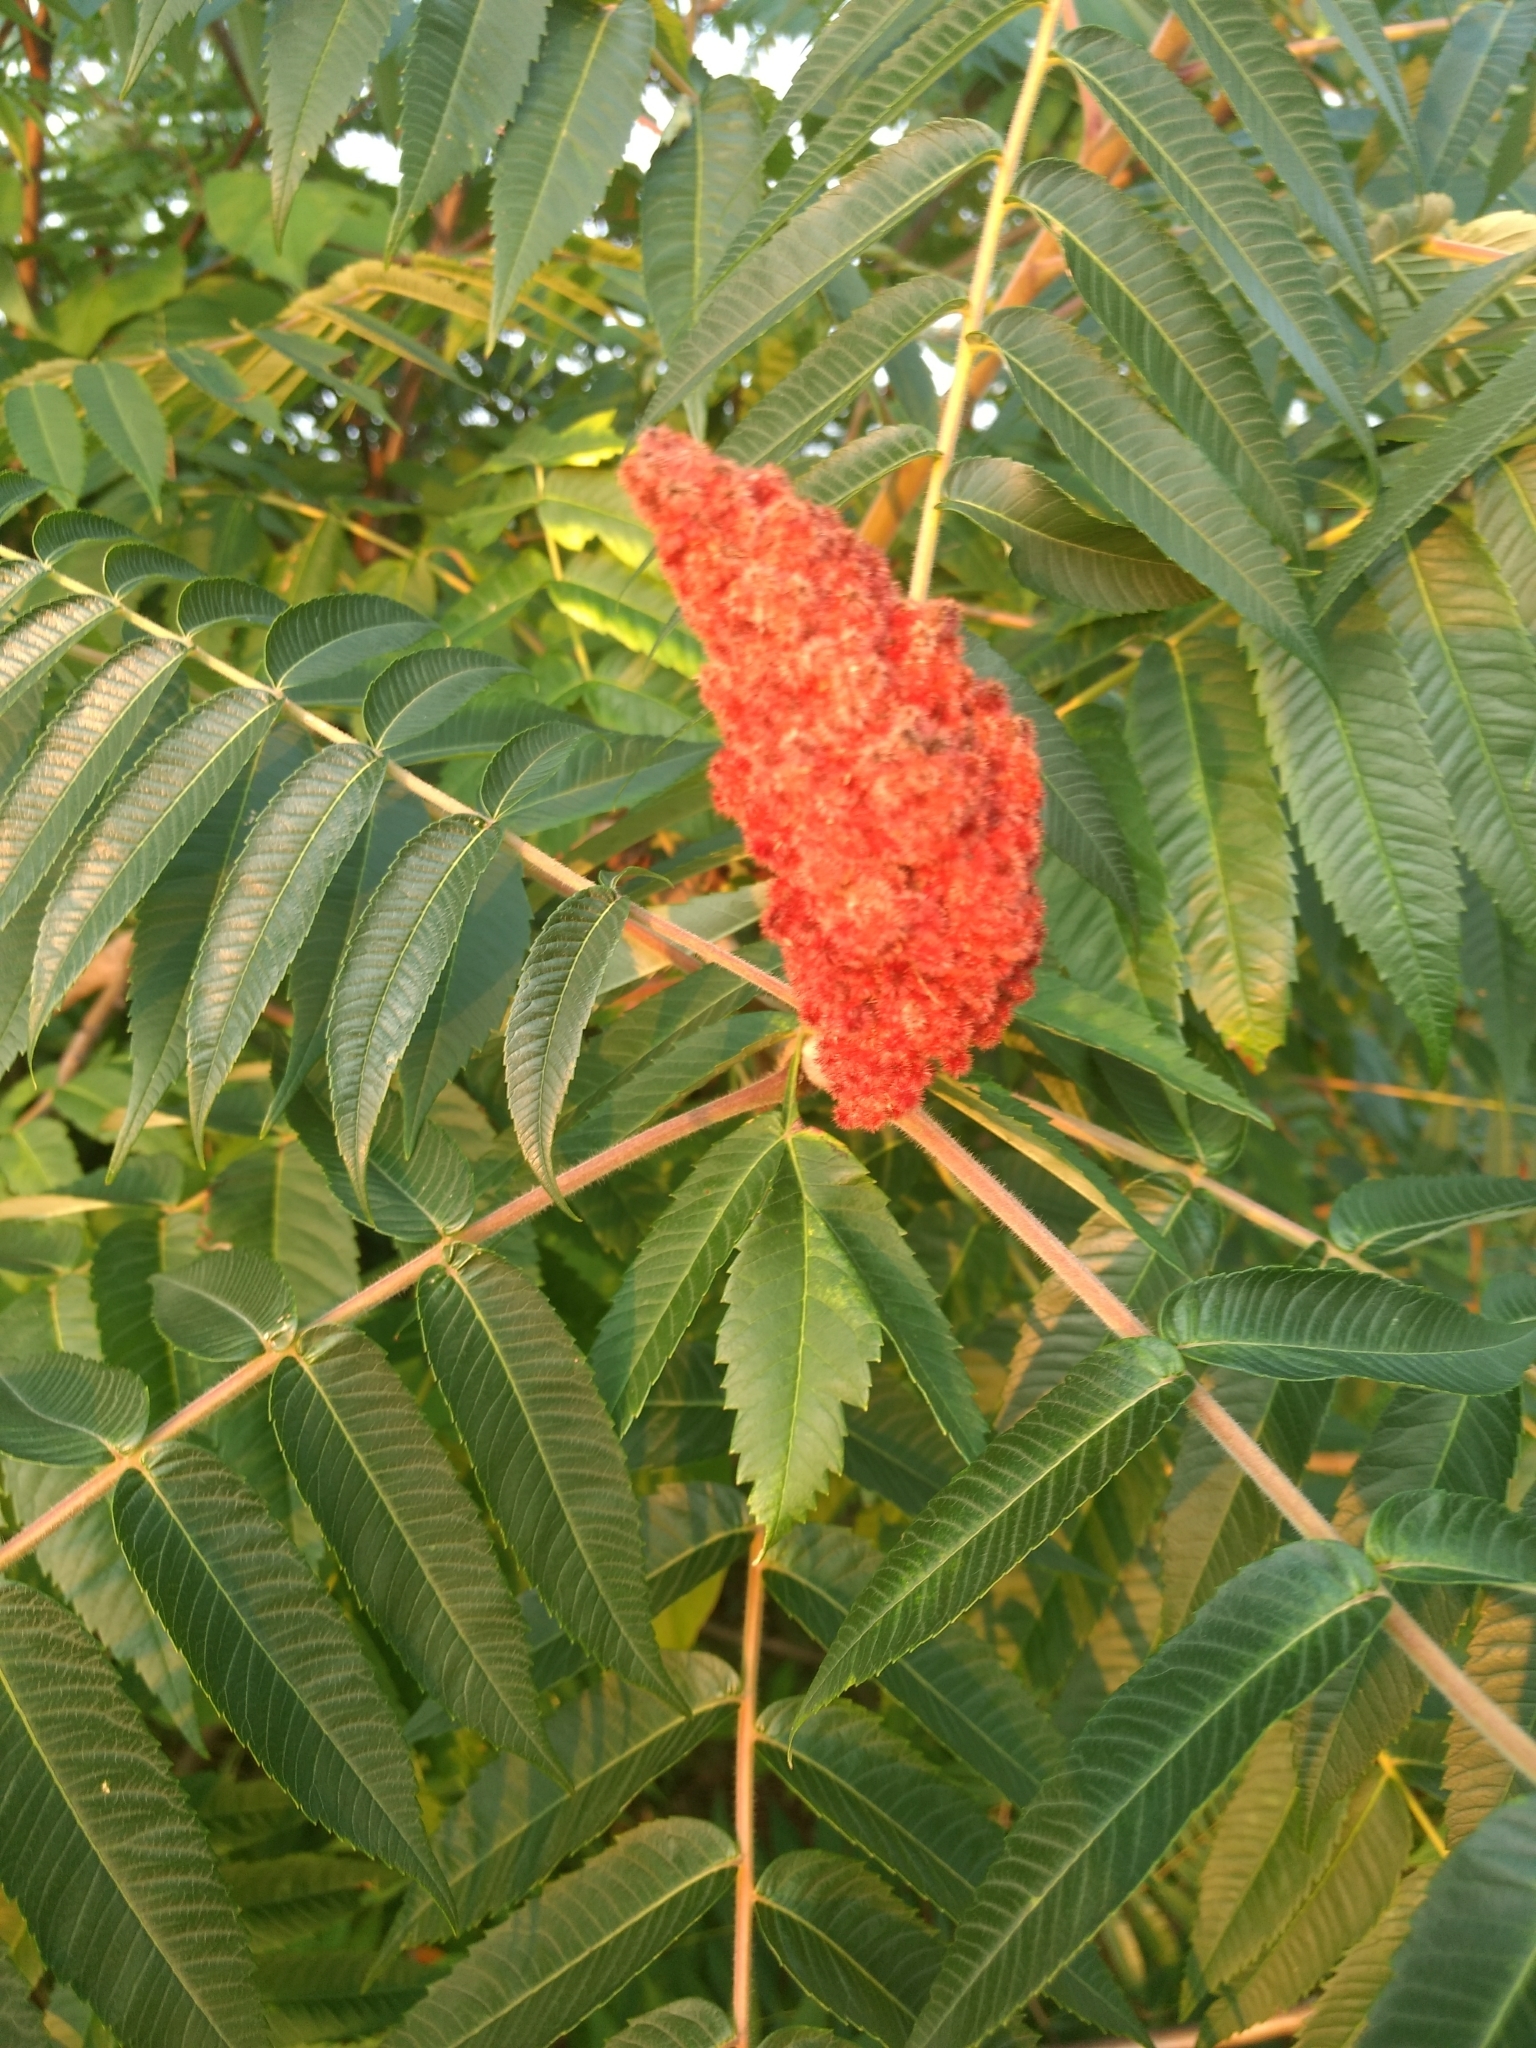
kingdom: Plantae
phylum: Tracheophyta
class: Magnoliopsida
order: Sapindales
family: Anacardiaceae
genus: Rhus
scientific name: Rhus typhina
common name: Staghorn sumac
